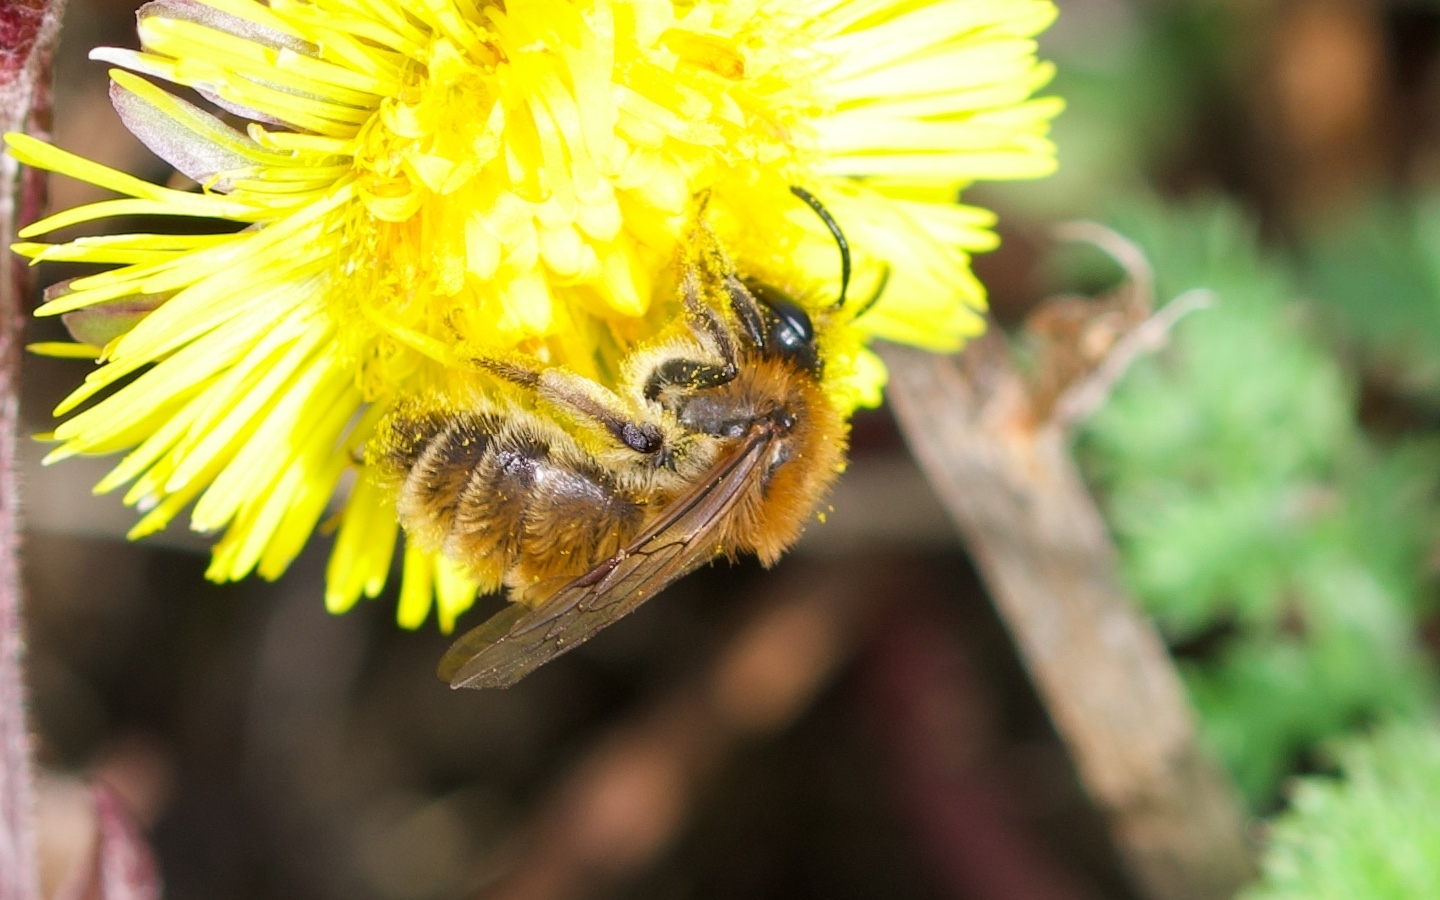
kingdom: Animalia
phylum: Arthropoda
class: Insecta
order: Hymenoptera
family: Andrenidae
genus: Andrena
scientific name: Andrena praecox
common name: Small sallow mining bee
